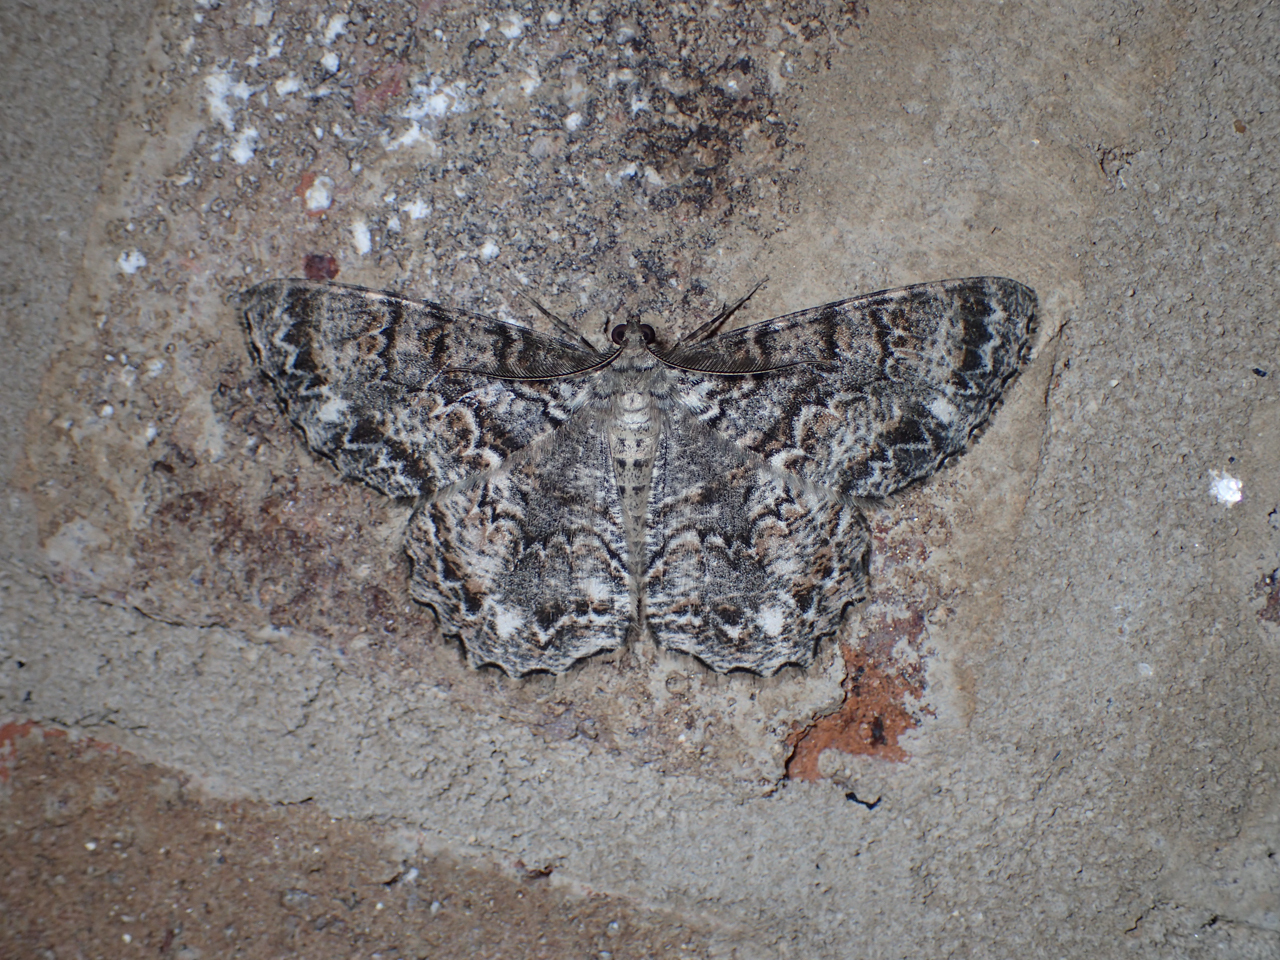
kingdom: Animalia
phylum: Arthropoda
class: Insecta
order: Lepidoptera
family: Geometridae
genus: Epimecis
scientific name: Epimecis hortaria
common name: Tulip-tree beauty
